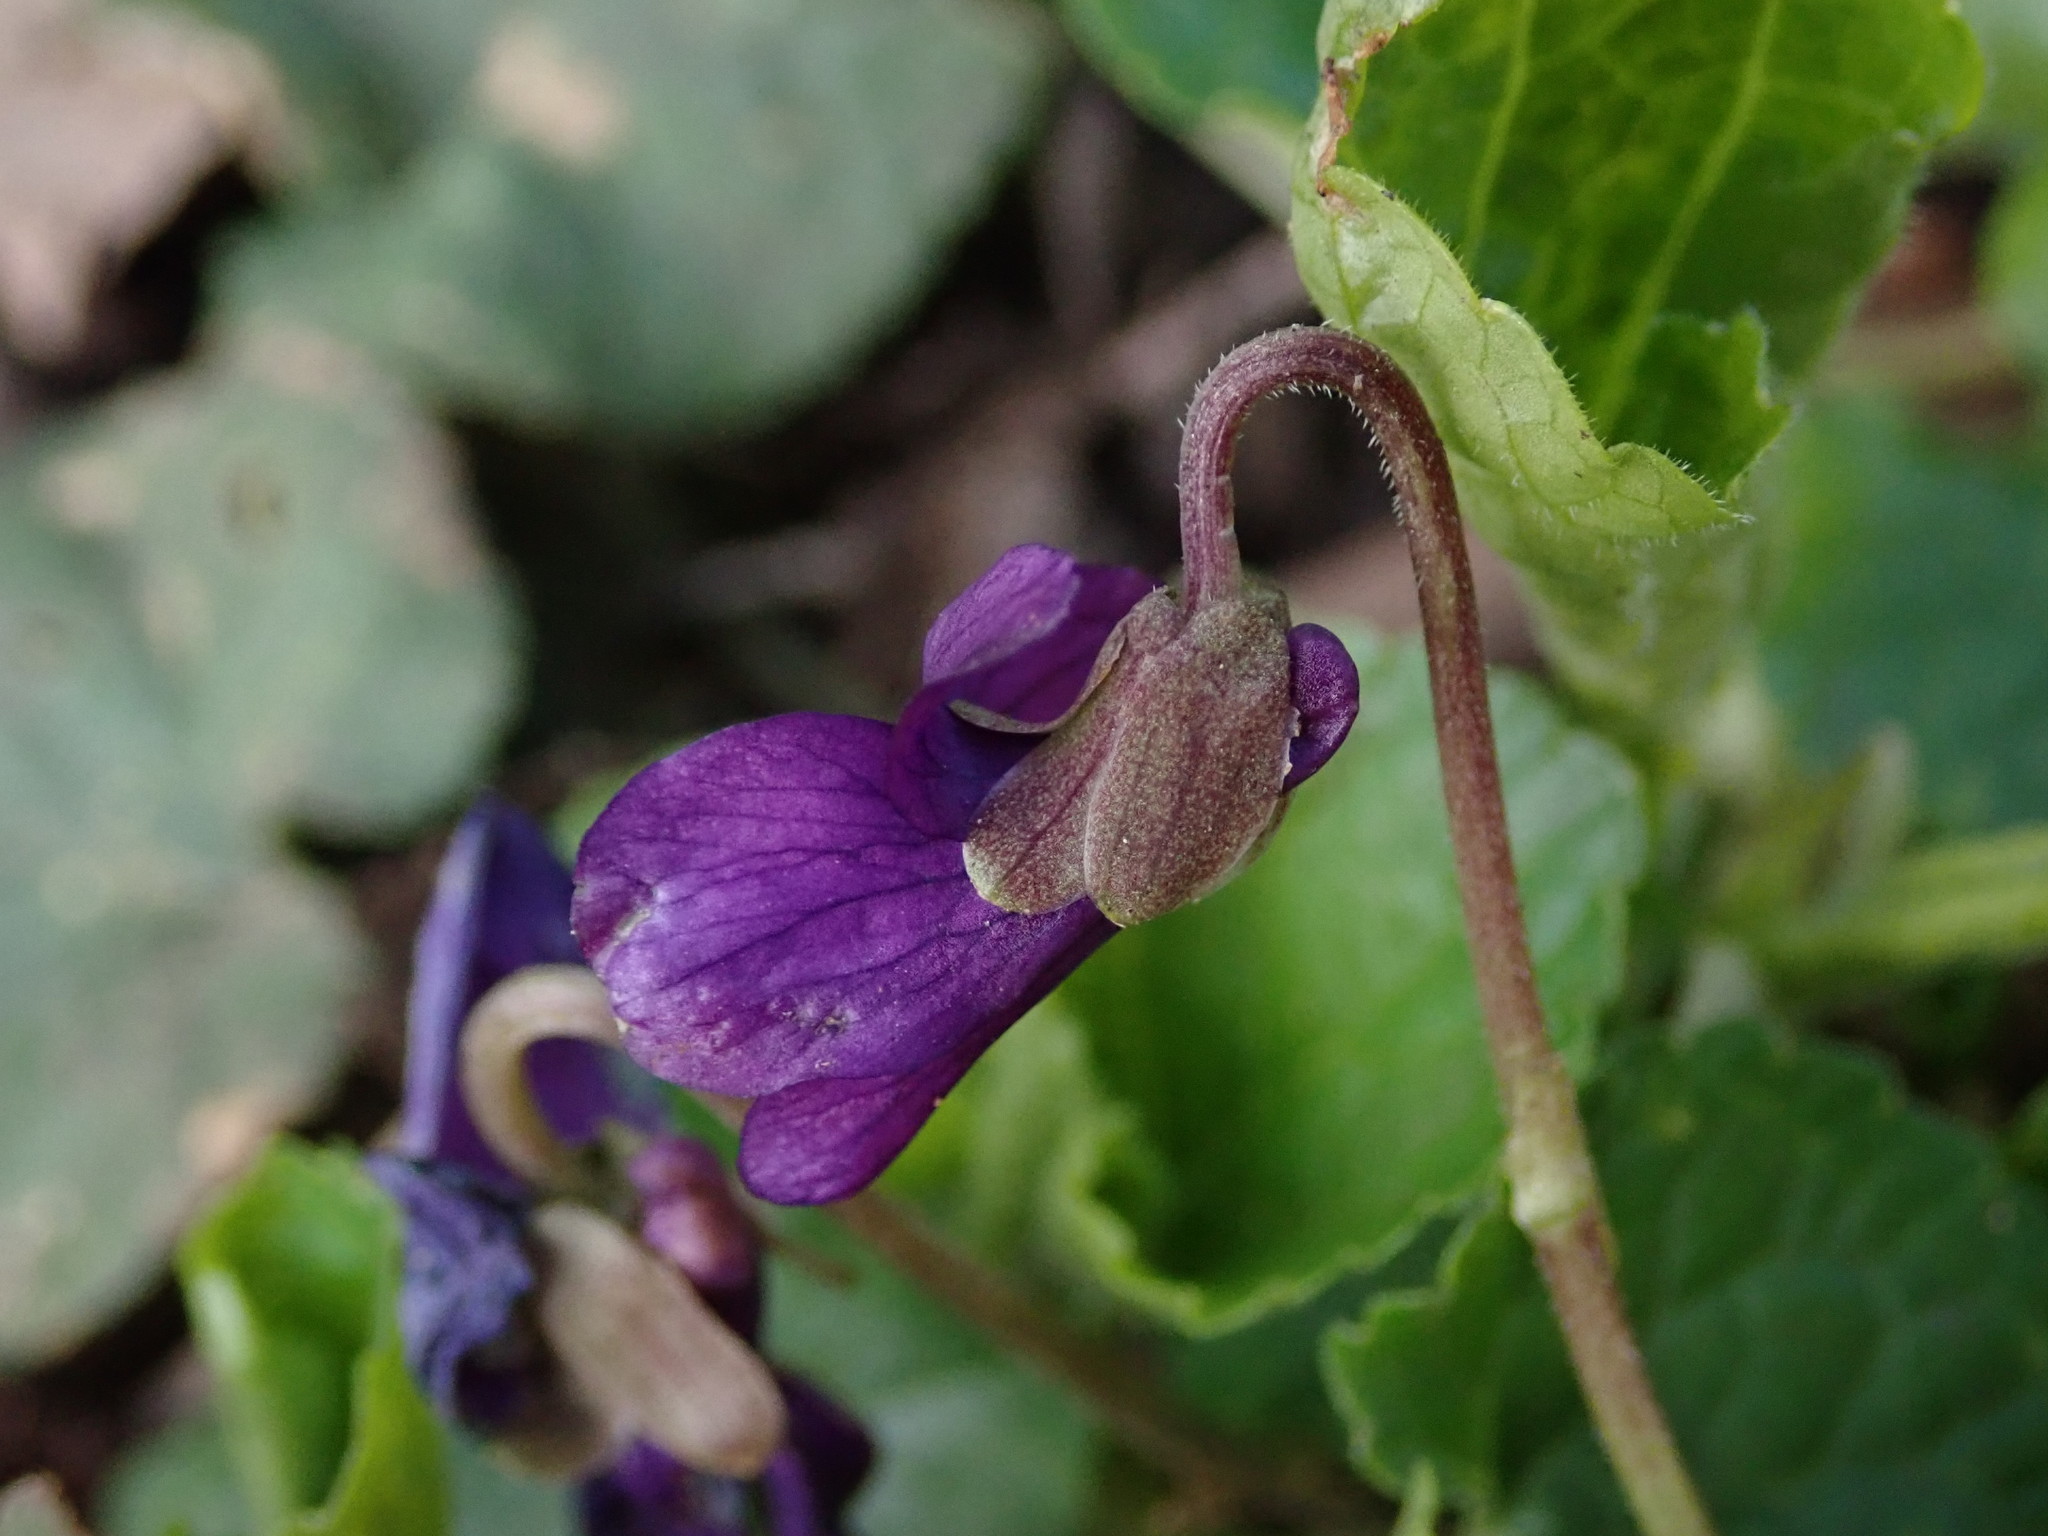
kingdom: Plantae
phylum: Tracheophyta
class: Magnoliopsida
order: Malpighiales
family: Violaceae
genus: Viola
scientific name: Viola odorata
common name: Sweet violet
